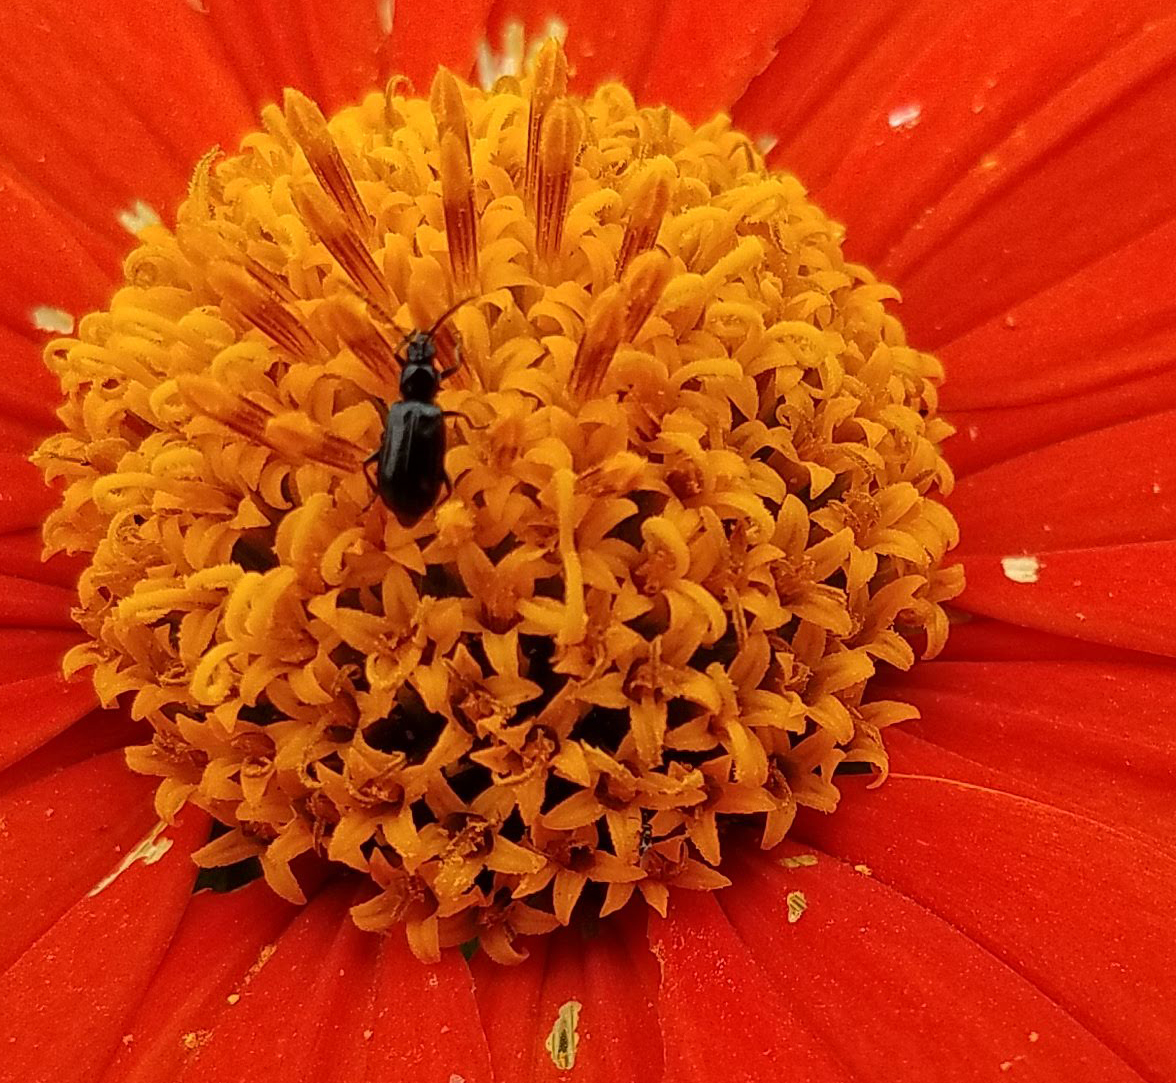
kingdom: Animalia
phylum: Arthropoda
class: Insecta
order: Coleoptera
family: Chrysomelidae
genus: Diabrotica
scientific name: Diabrotica cristata
